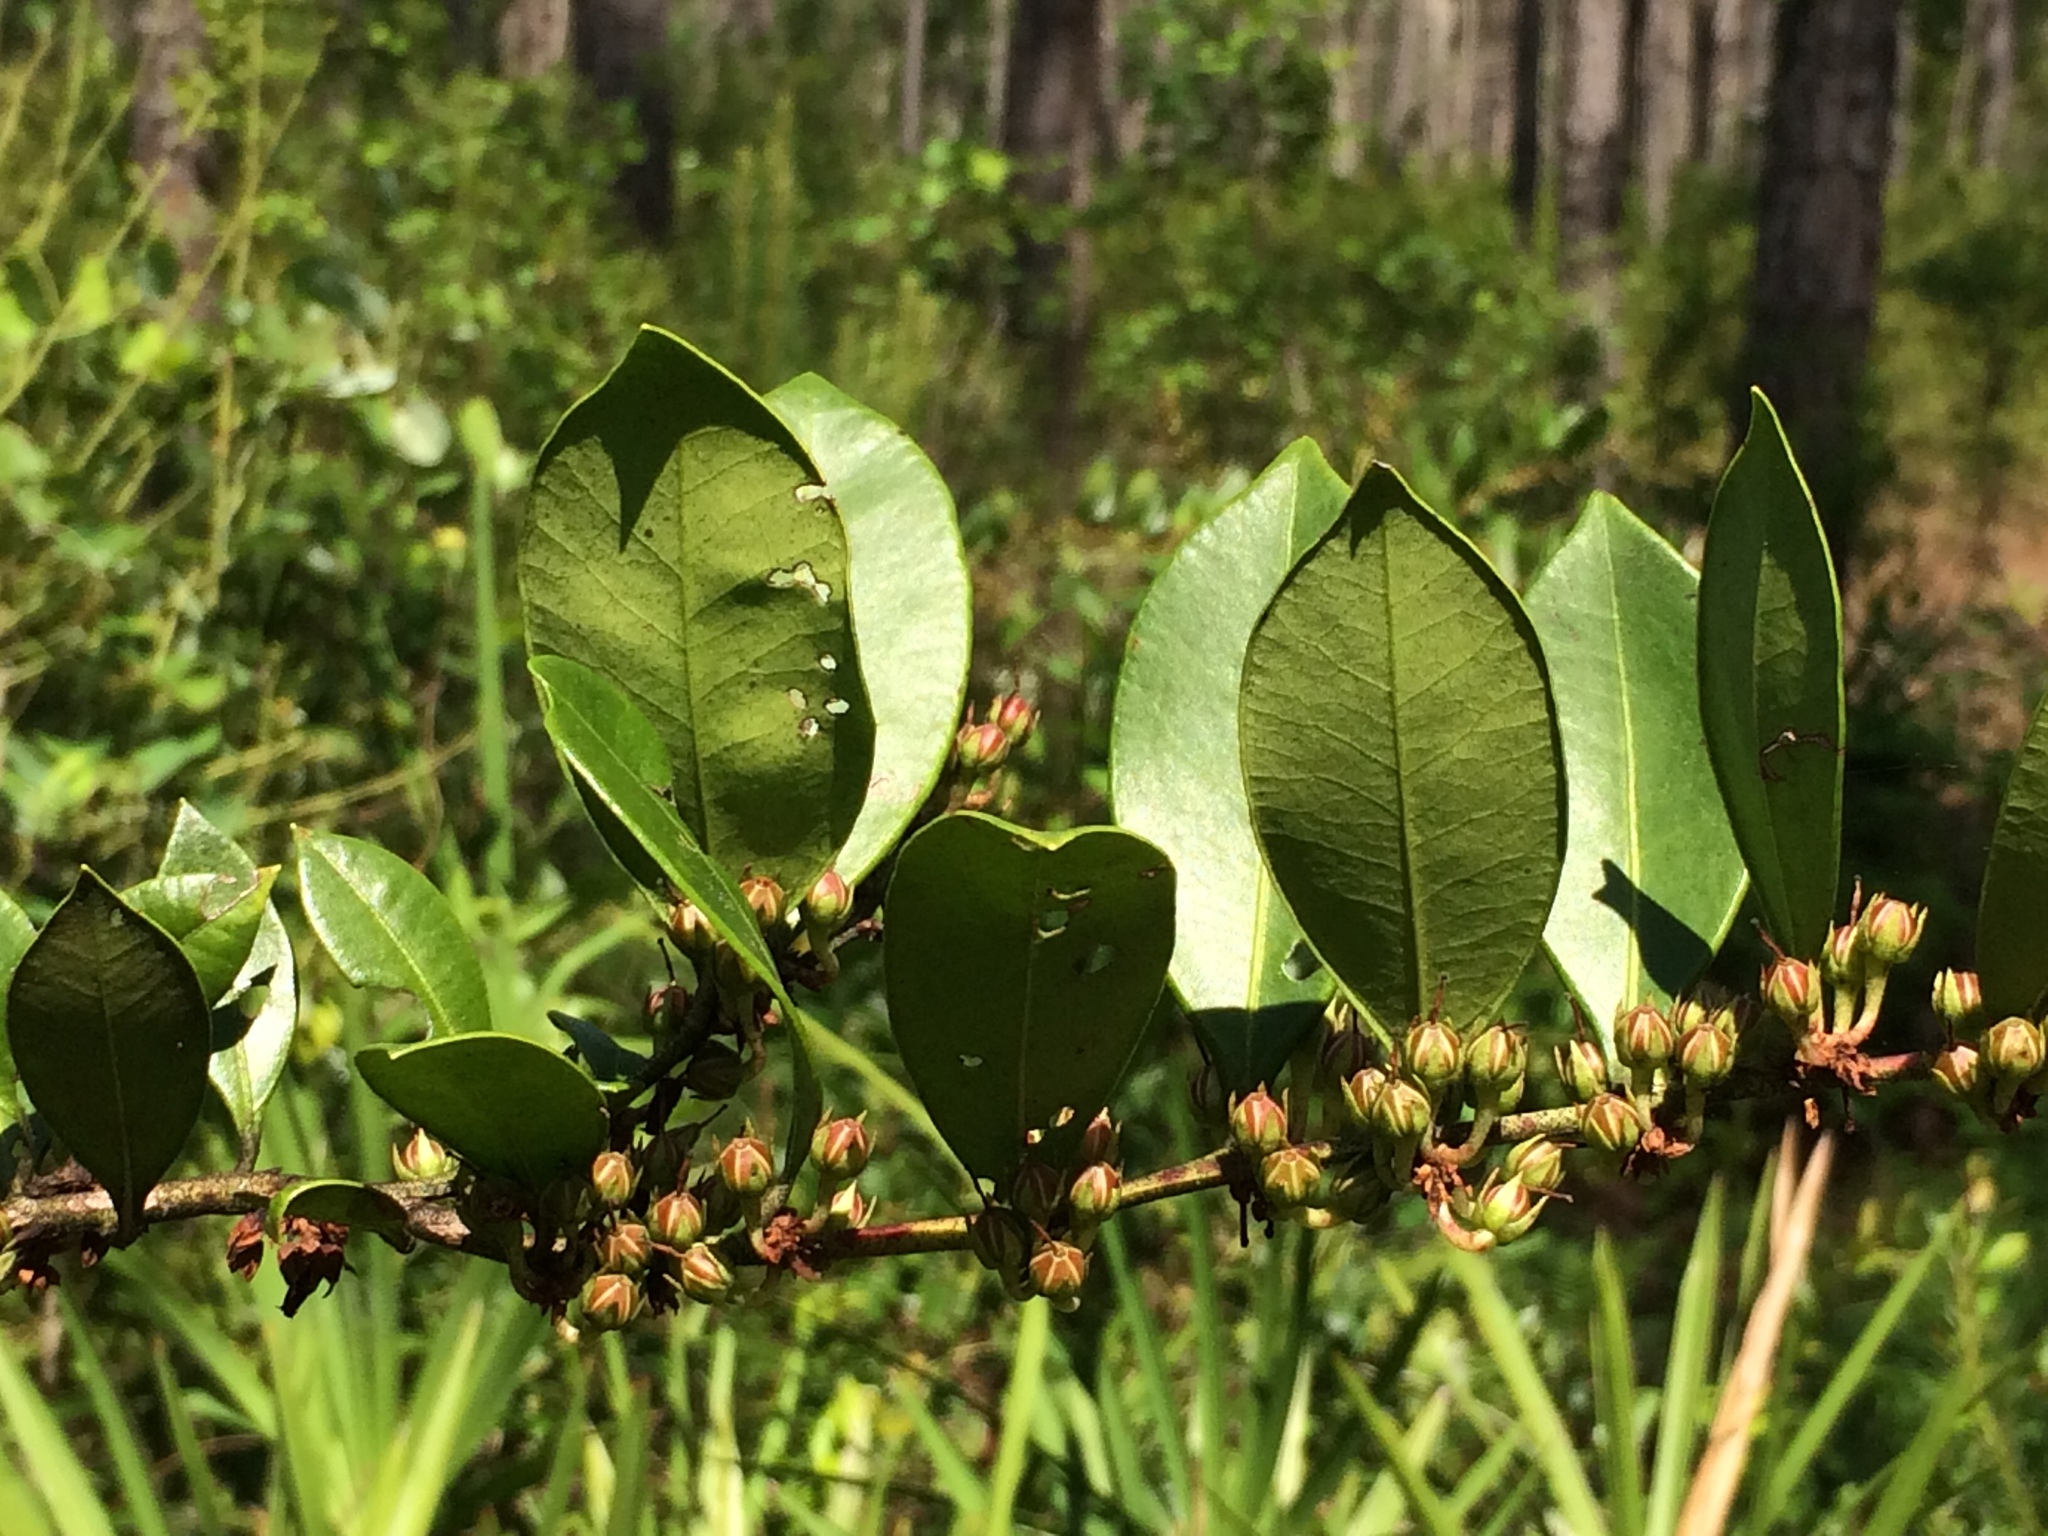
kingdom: Plantae
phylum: Tracheophyta
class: Magnoliopsida
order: Ericales
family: Ericaceae
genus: Lyonia
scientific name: Lyonia lucida
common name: Fetterbush
